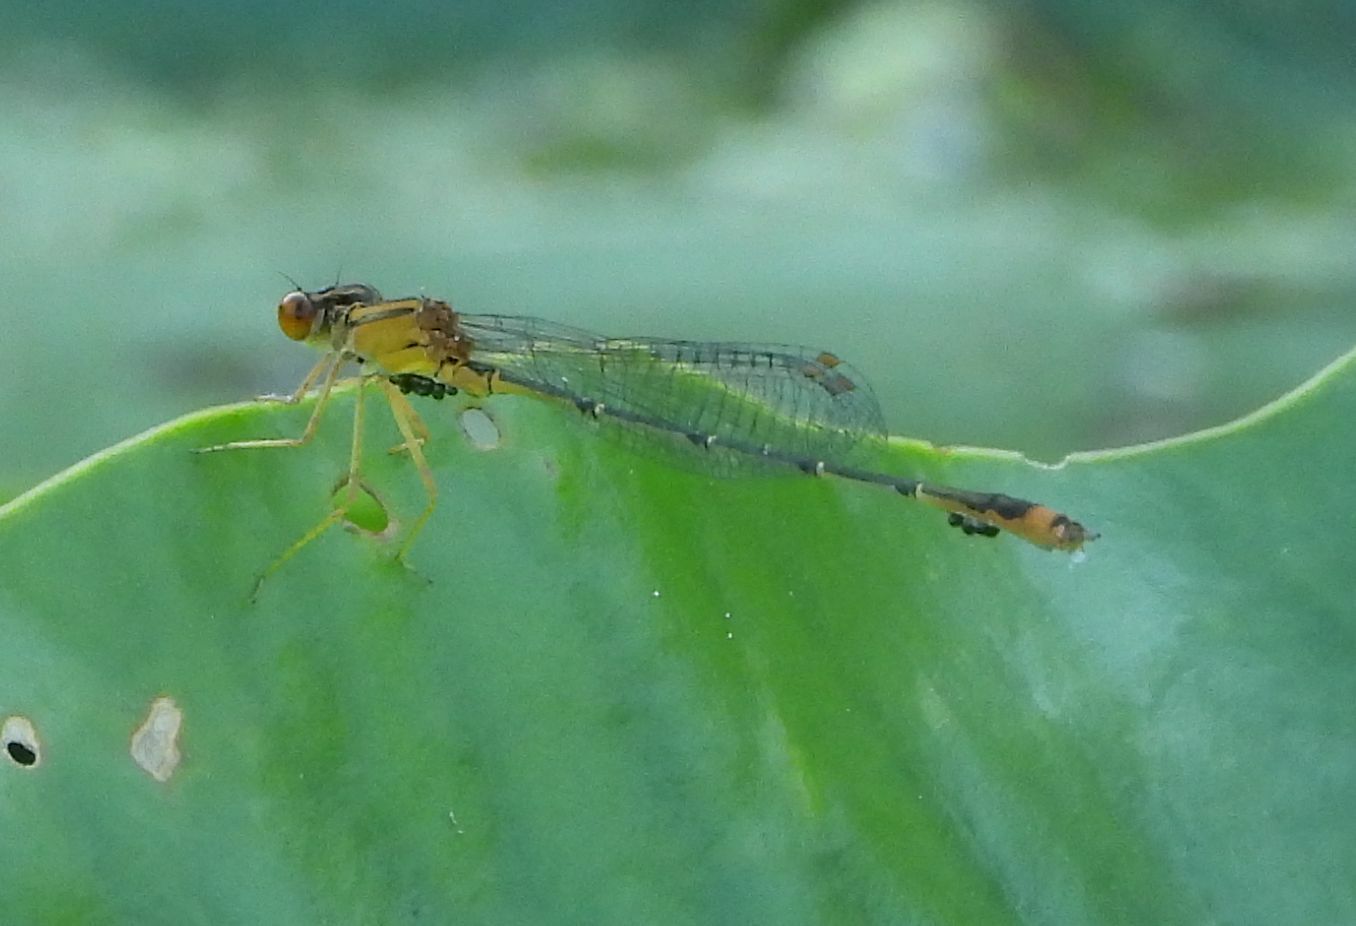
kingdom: Animalia
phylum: Arthropoda
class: Insecta
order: Odonata
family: Coenagrionidae
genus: Enallagma
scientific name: Enallagma signatum
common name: Orange bluet
